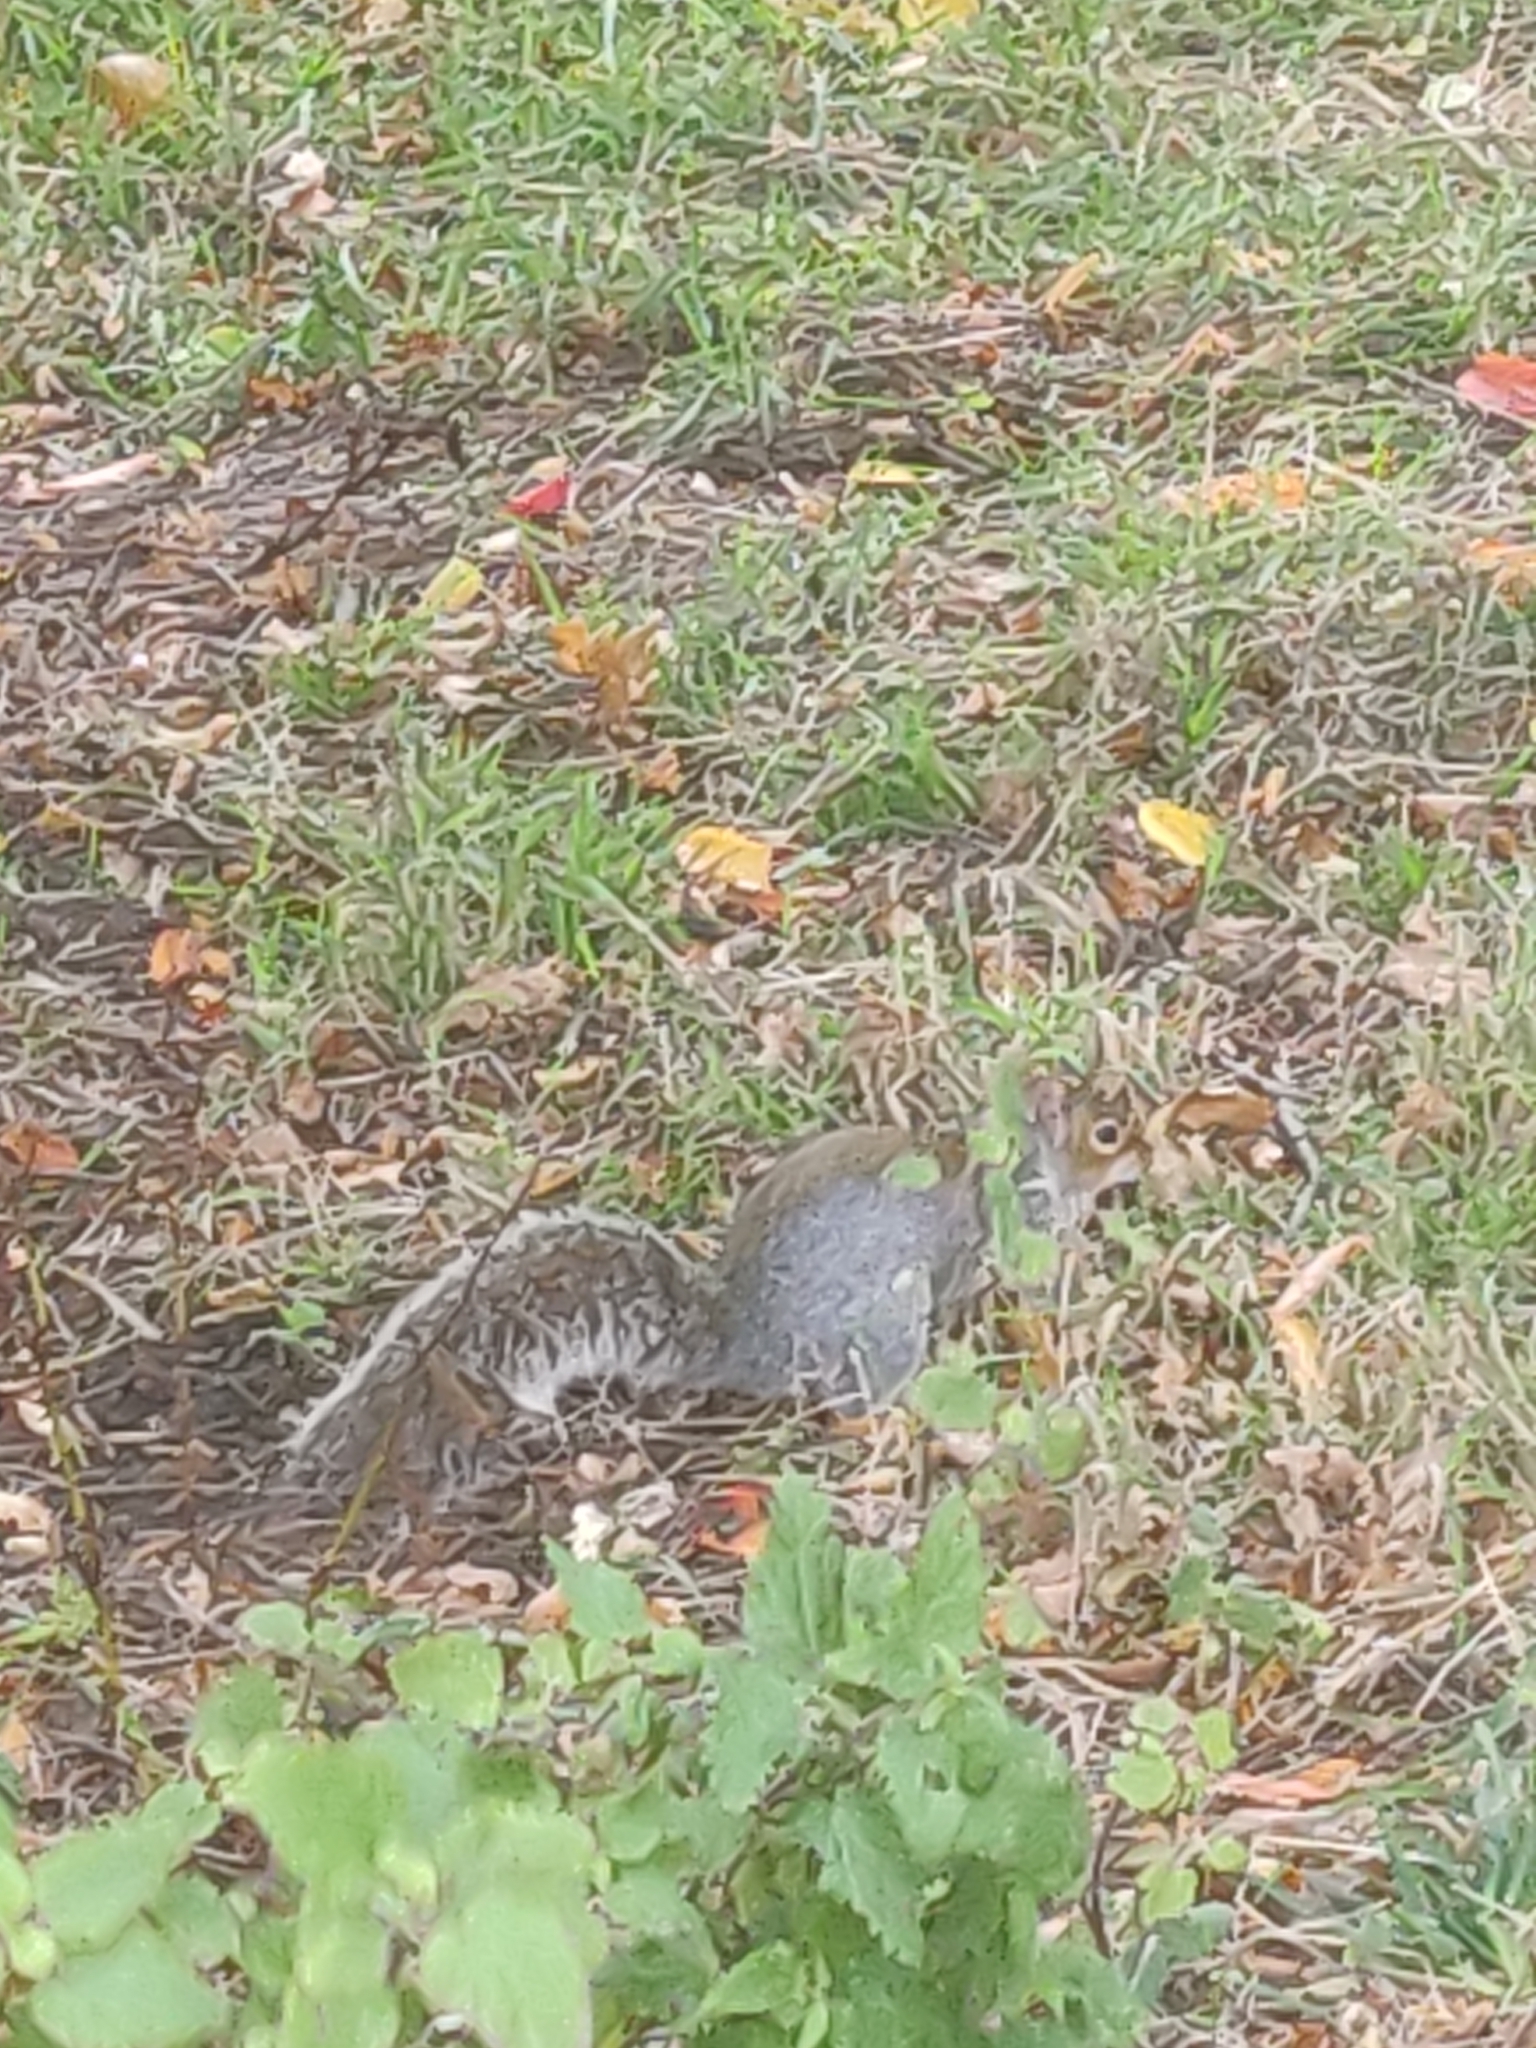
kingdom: Animalia
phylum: Chordata
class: Mammalia
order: Rodentia
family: Sciuridae
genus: Sciurus
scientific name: Sciurus carolinensis
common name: Eastern gray squirrel
